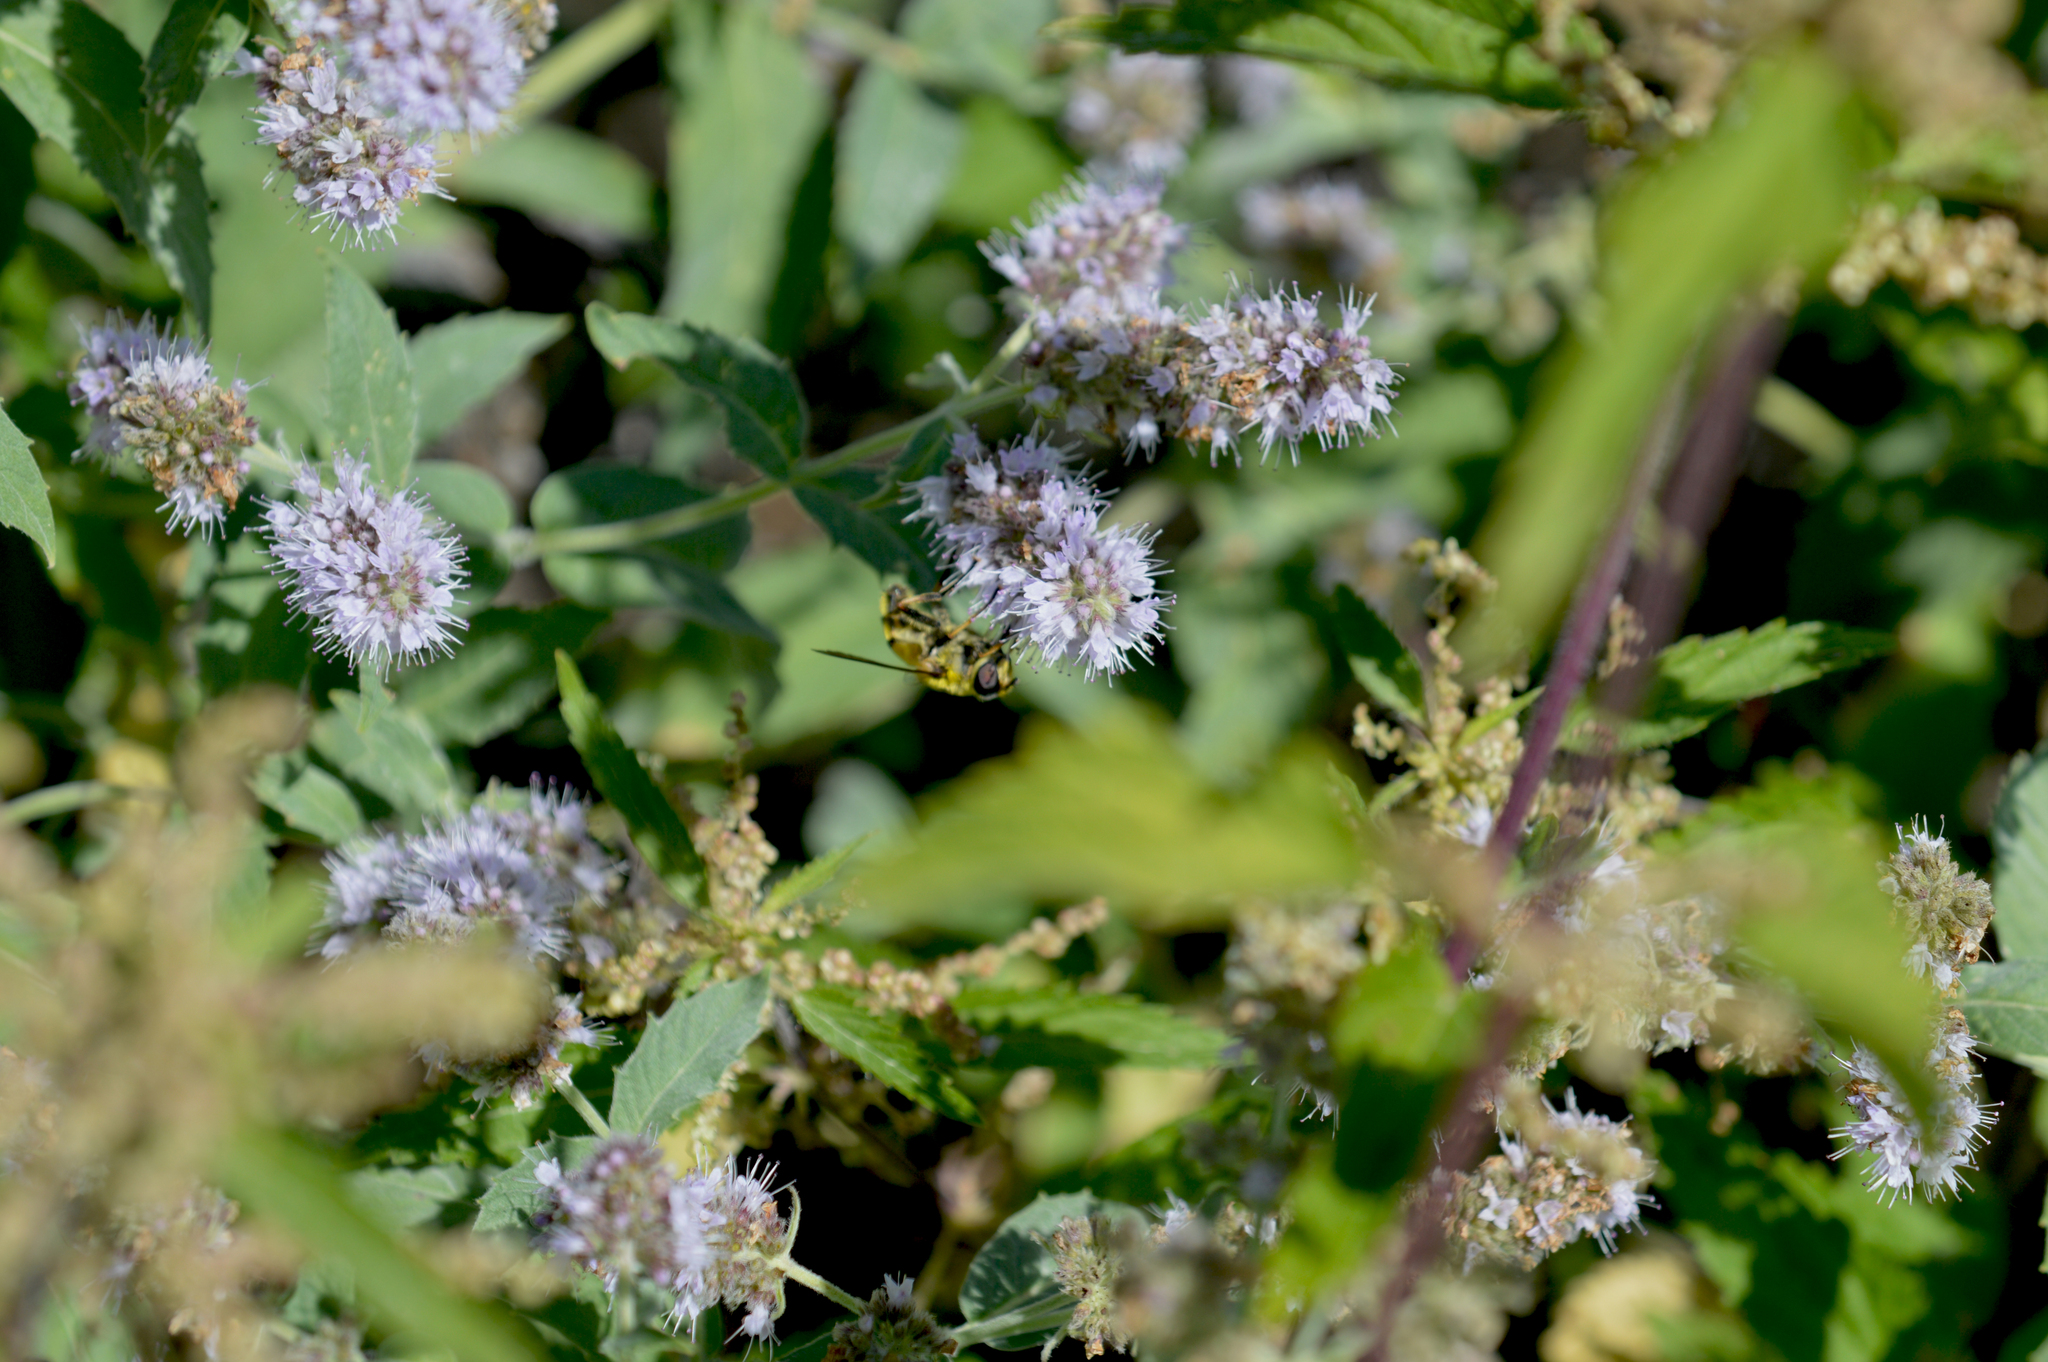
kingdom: Animalia
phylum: Arthropoda
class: Insecta
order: Diptera
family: Syrphidae
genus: Myathropa
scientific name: Myathropa florea
